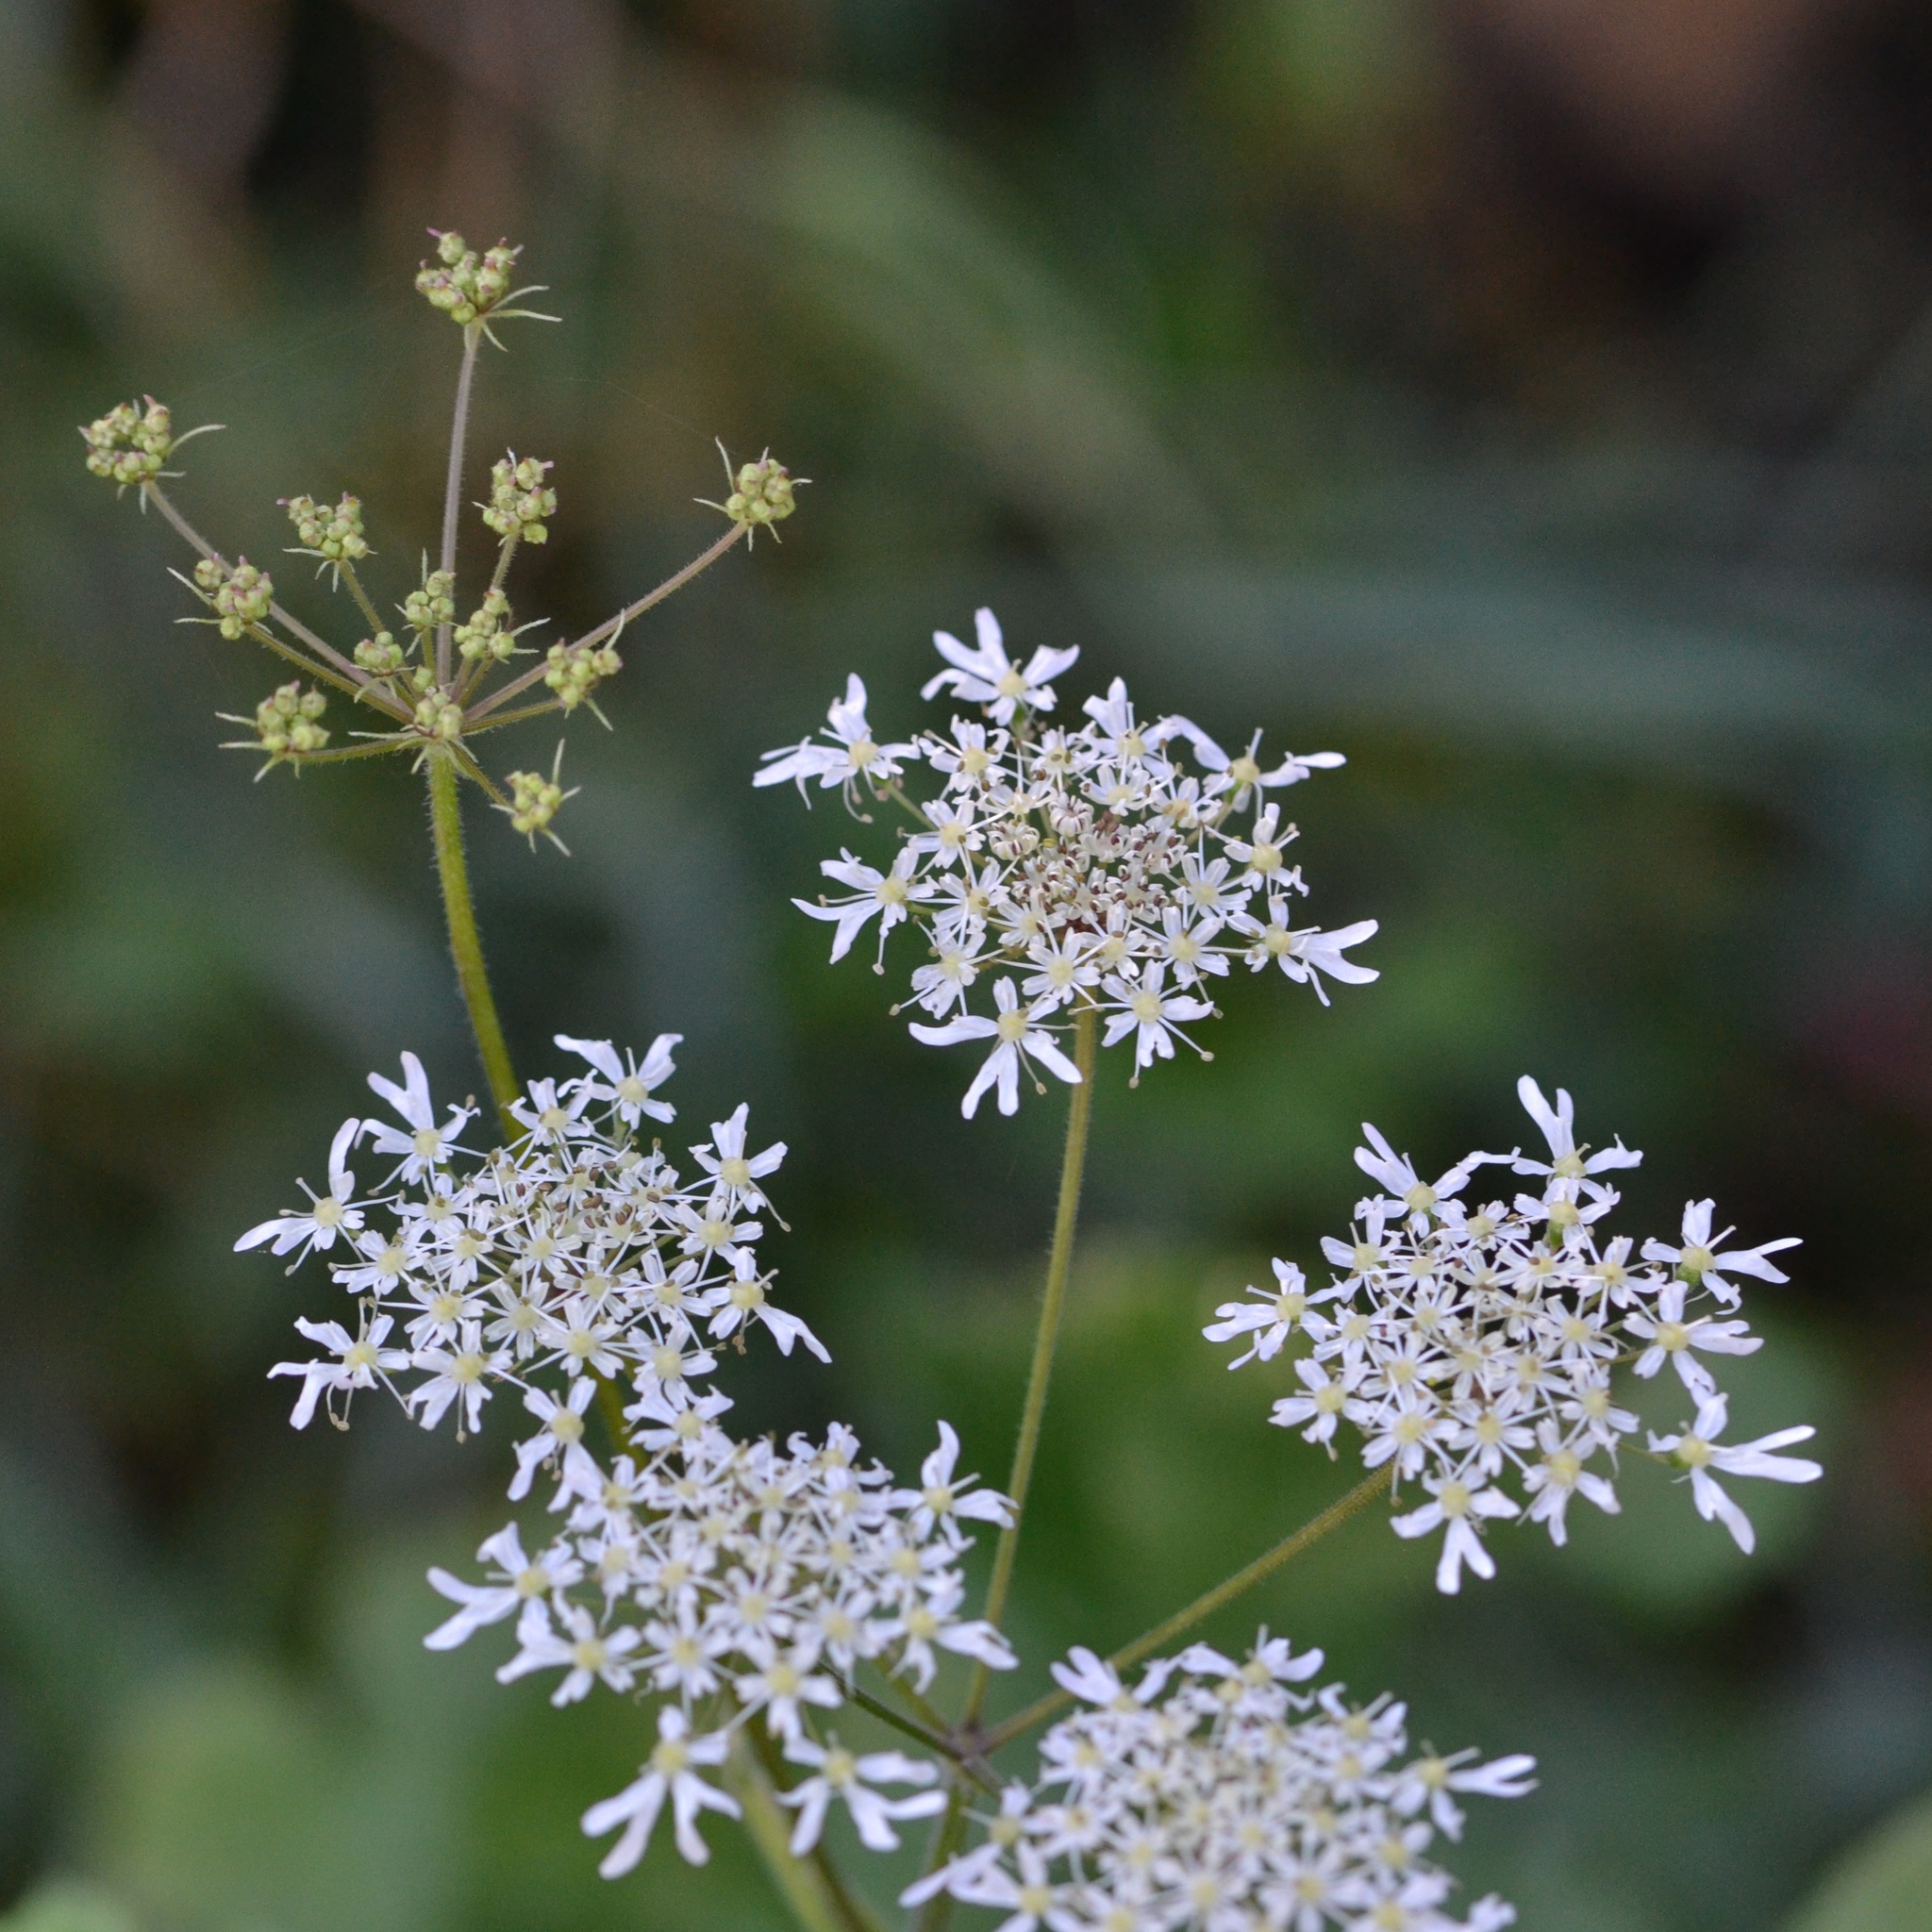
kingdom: Plantae
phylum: Tracheophyta
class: Magnoliopsida
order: Apiales
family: Apiaceae
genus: Heracleum
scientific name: Heracleum sphondylium
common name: Hogweed
